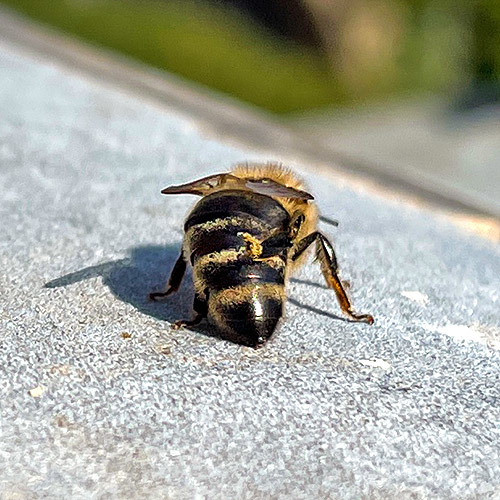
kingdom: Animalia
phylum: Arthropoda
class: Insecta
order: Hymenoptera
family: Apidae
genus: Apis
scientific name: Apis mellifera
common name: Honey bee
